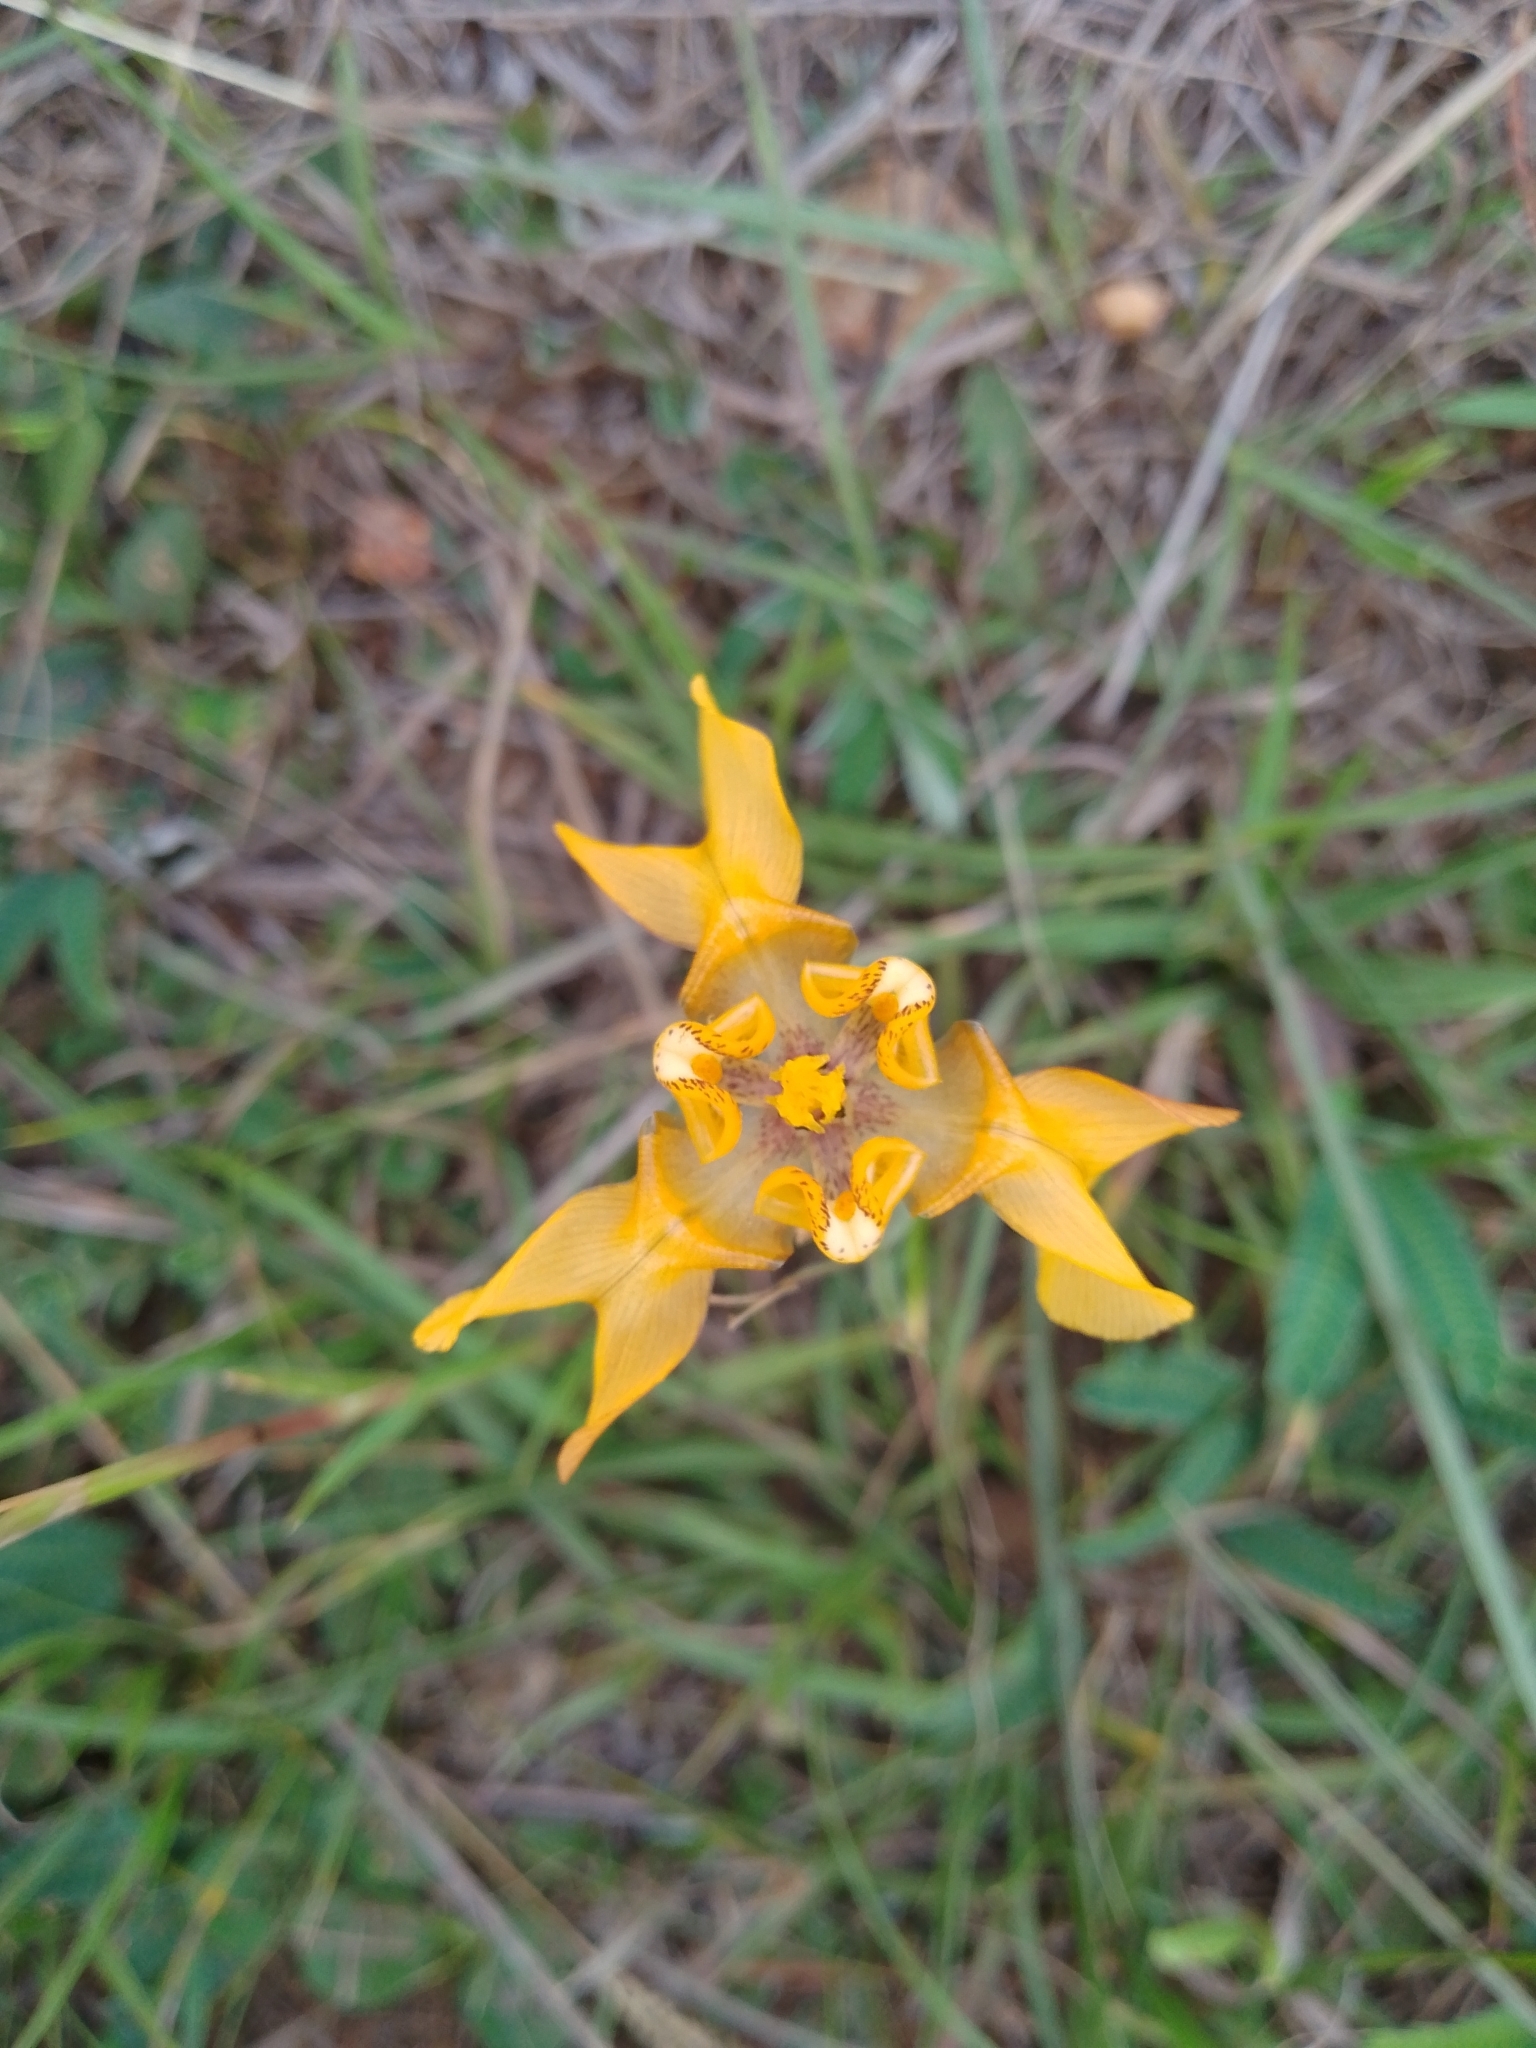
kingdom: Plantae
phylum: Tracheophyta
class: Liliopsida
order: Asparagales
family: Iridaceae
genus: Cypella
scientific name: Cypella fucata
